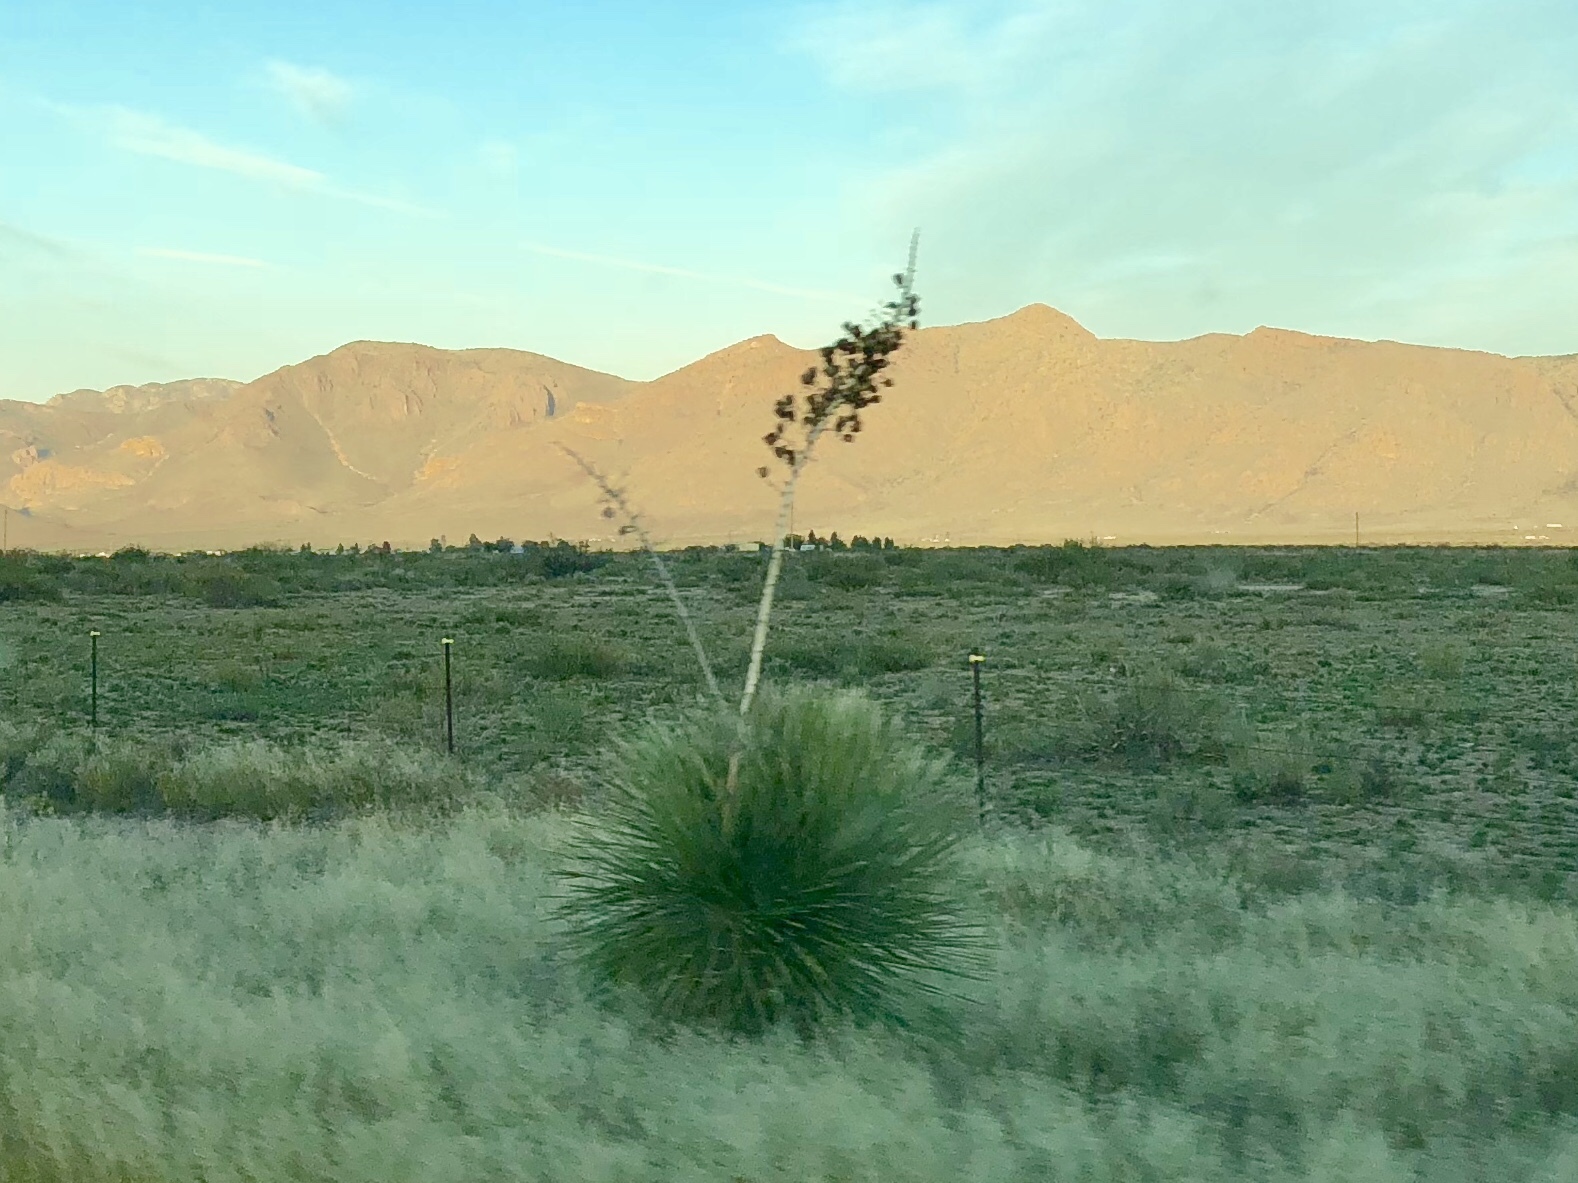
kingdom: Plantae
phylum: Tracheophyta
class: Liliopsida
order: Asparagales
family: Asparagaceae
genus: Yucca
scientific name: Yucca elata
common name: Palmella
